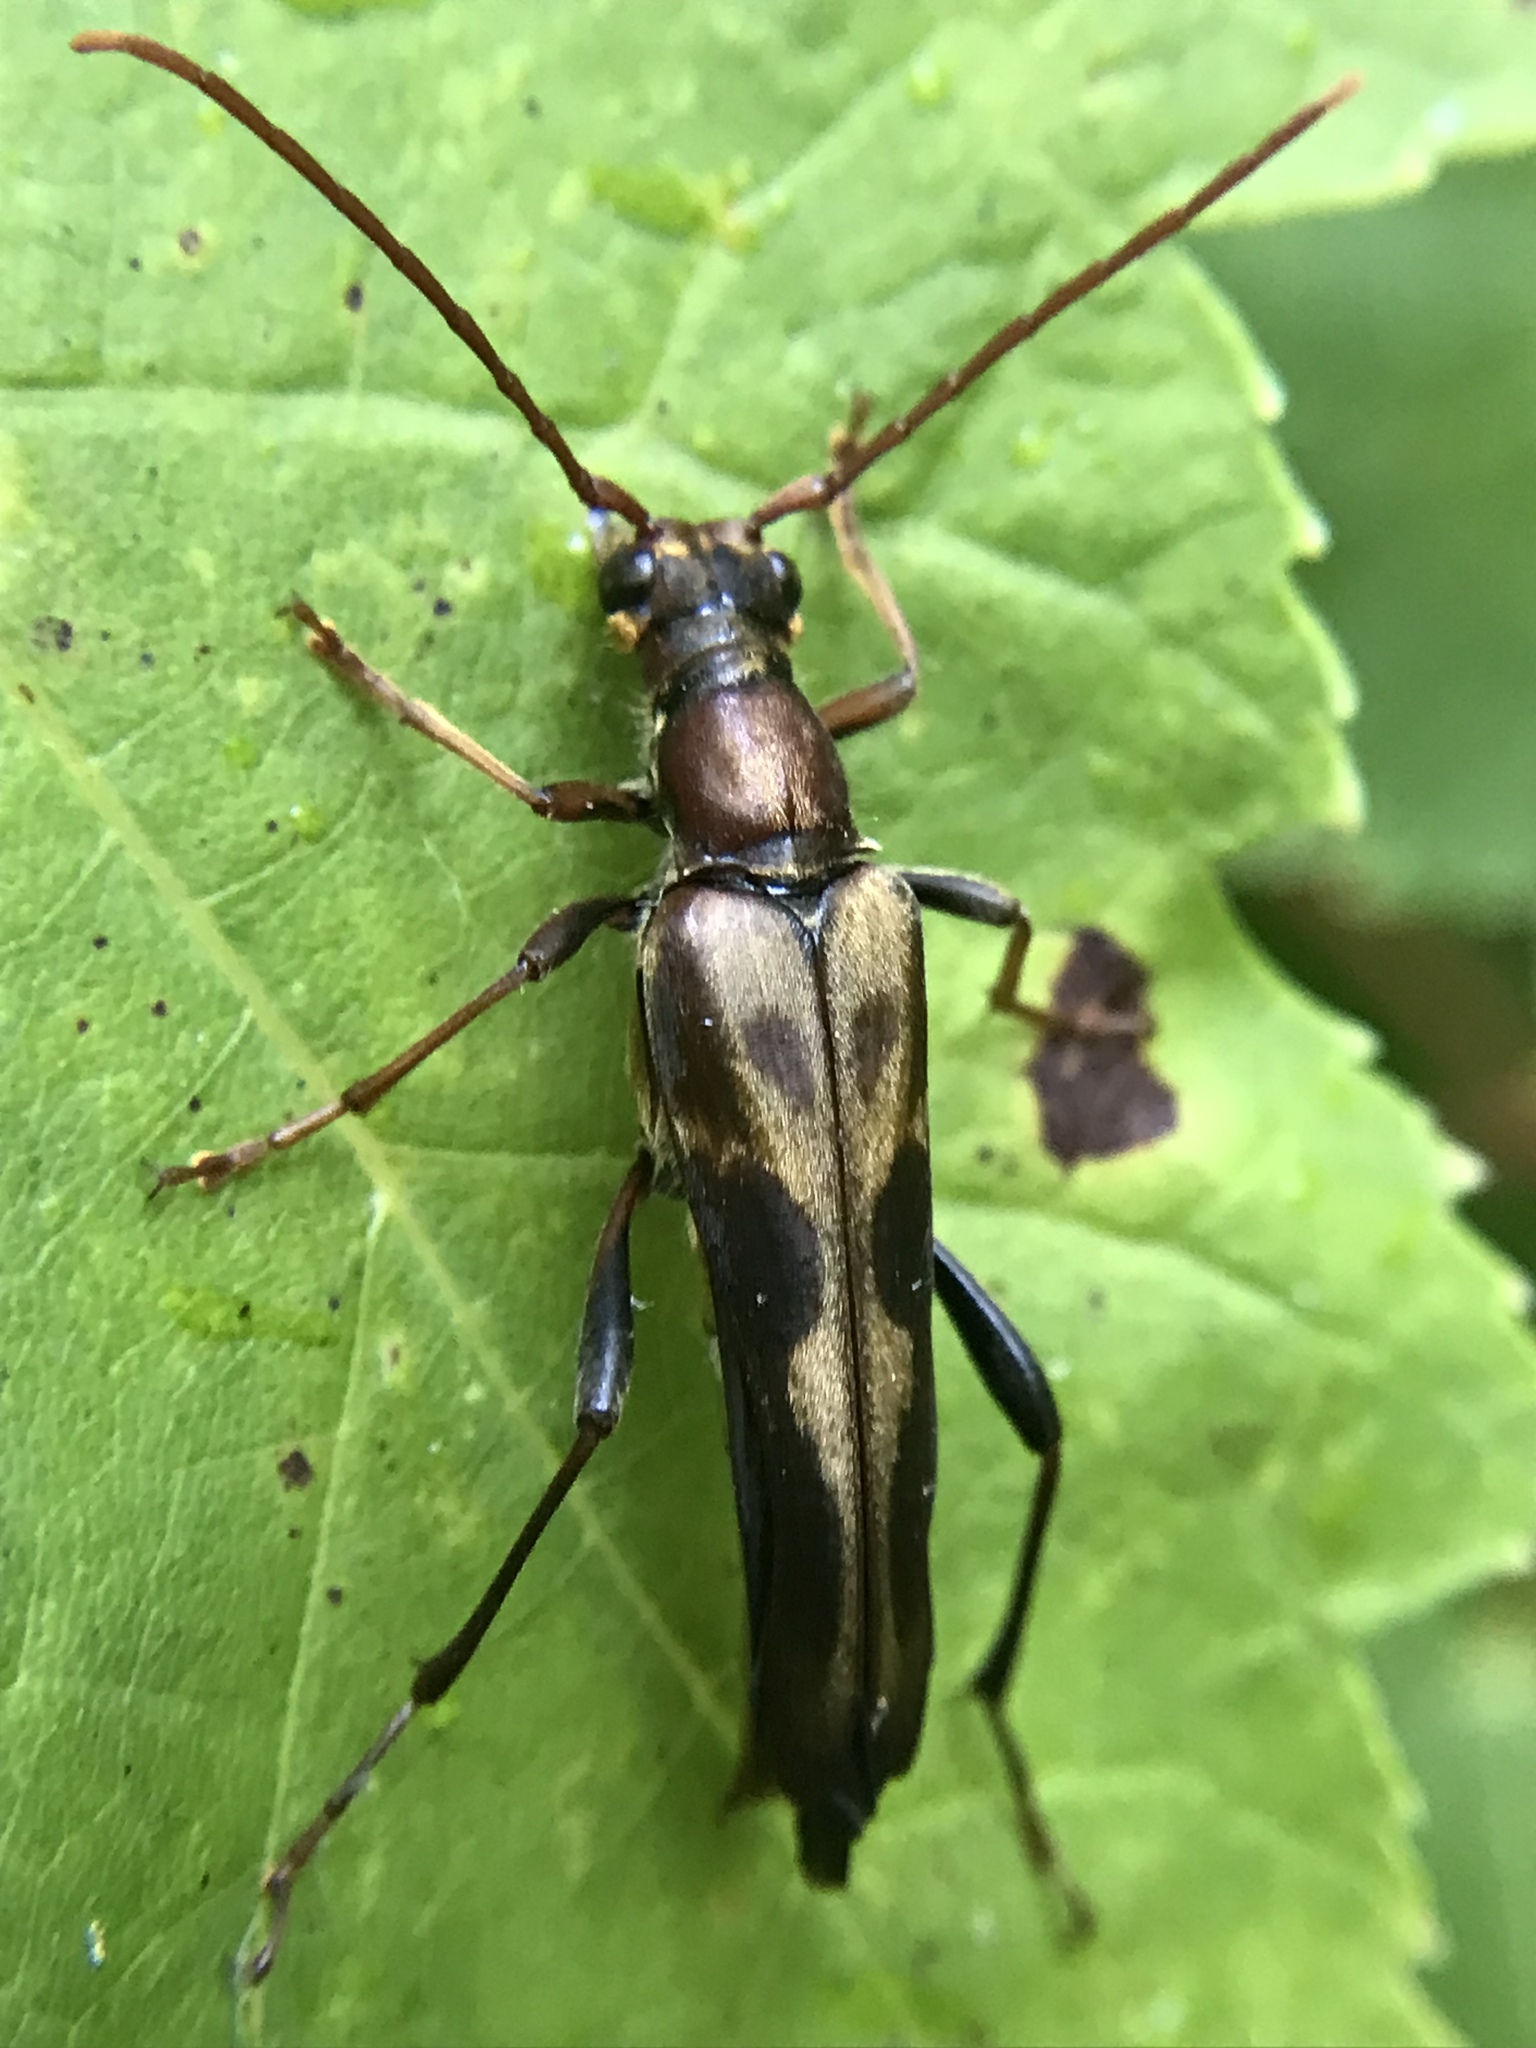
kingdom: Animalia
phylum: Arthropoda
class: Insecta
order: Coleoptera
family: Cerambycidae
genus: Bellamira
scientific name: Bellamira scalaris
